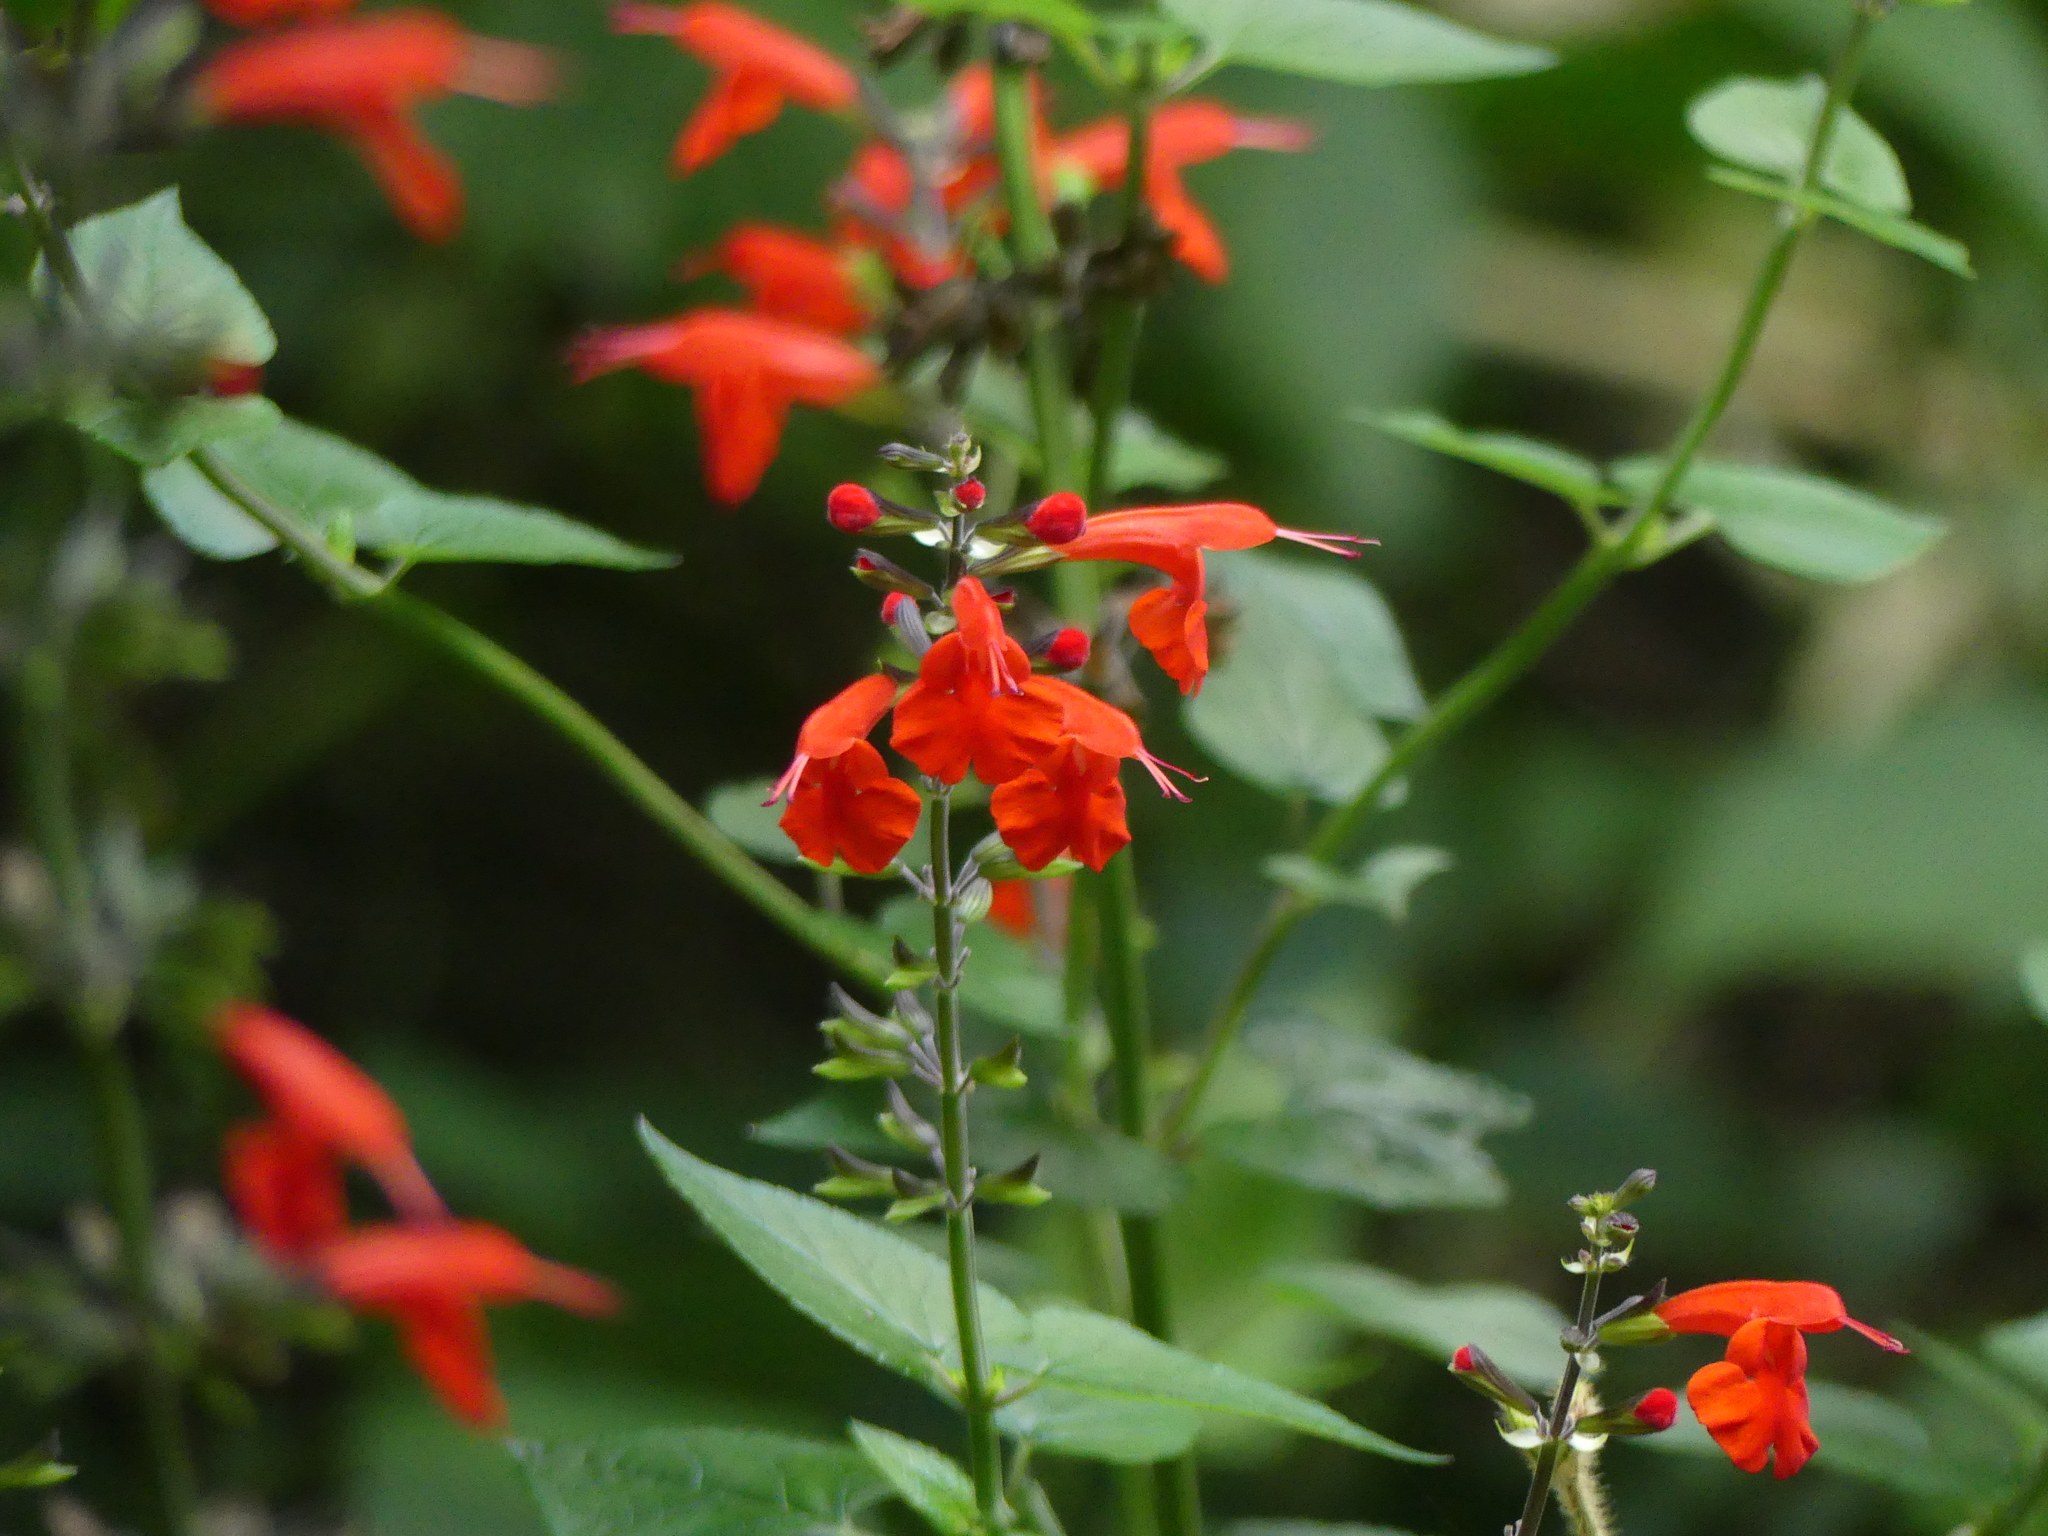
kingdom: Plantae
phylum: Tracheophyta
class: Magnoliopsida
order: Lamiales
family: Lamiaceae
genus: Salvia
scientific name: Salvia coccinea
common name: Blood sage
